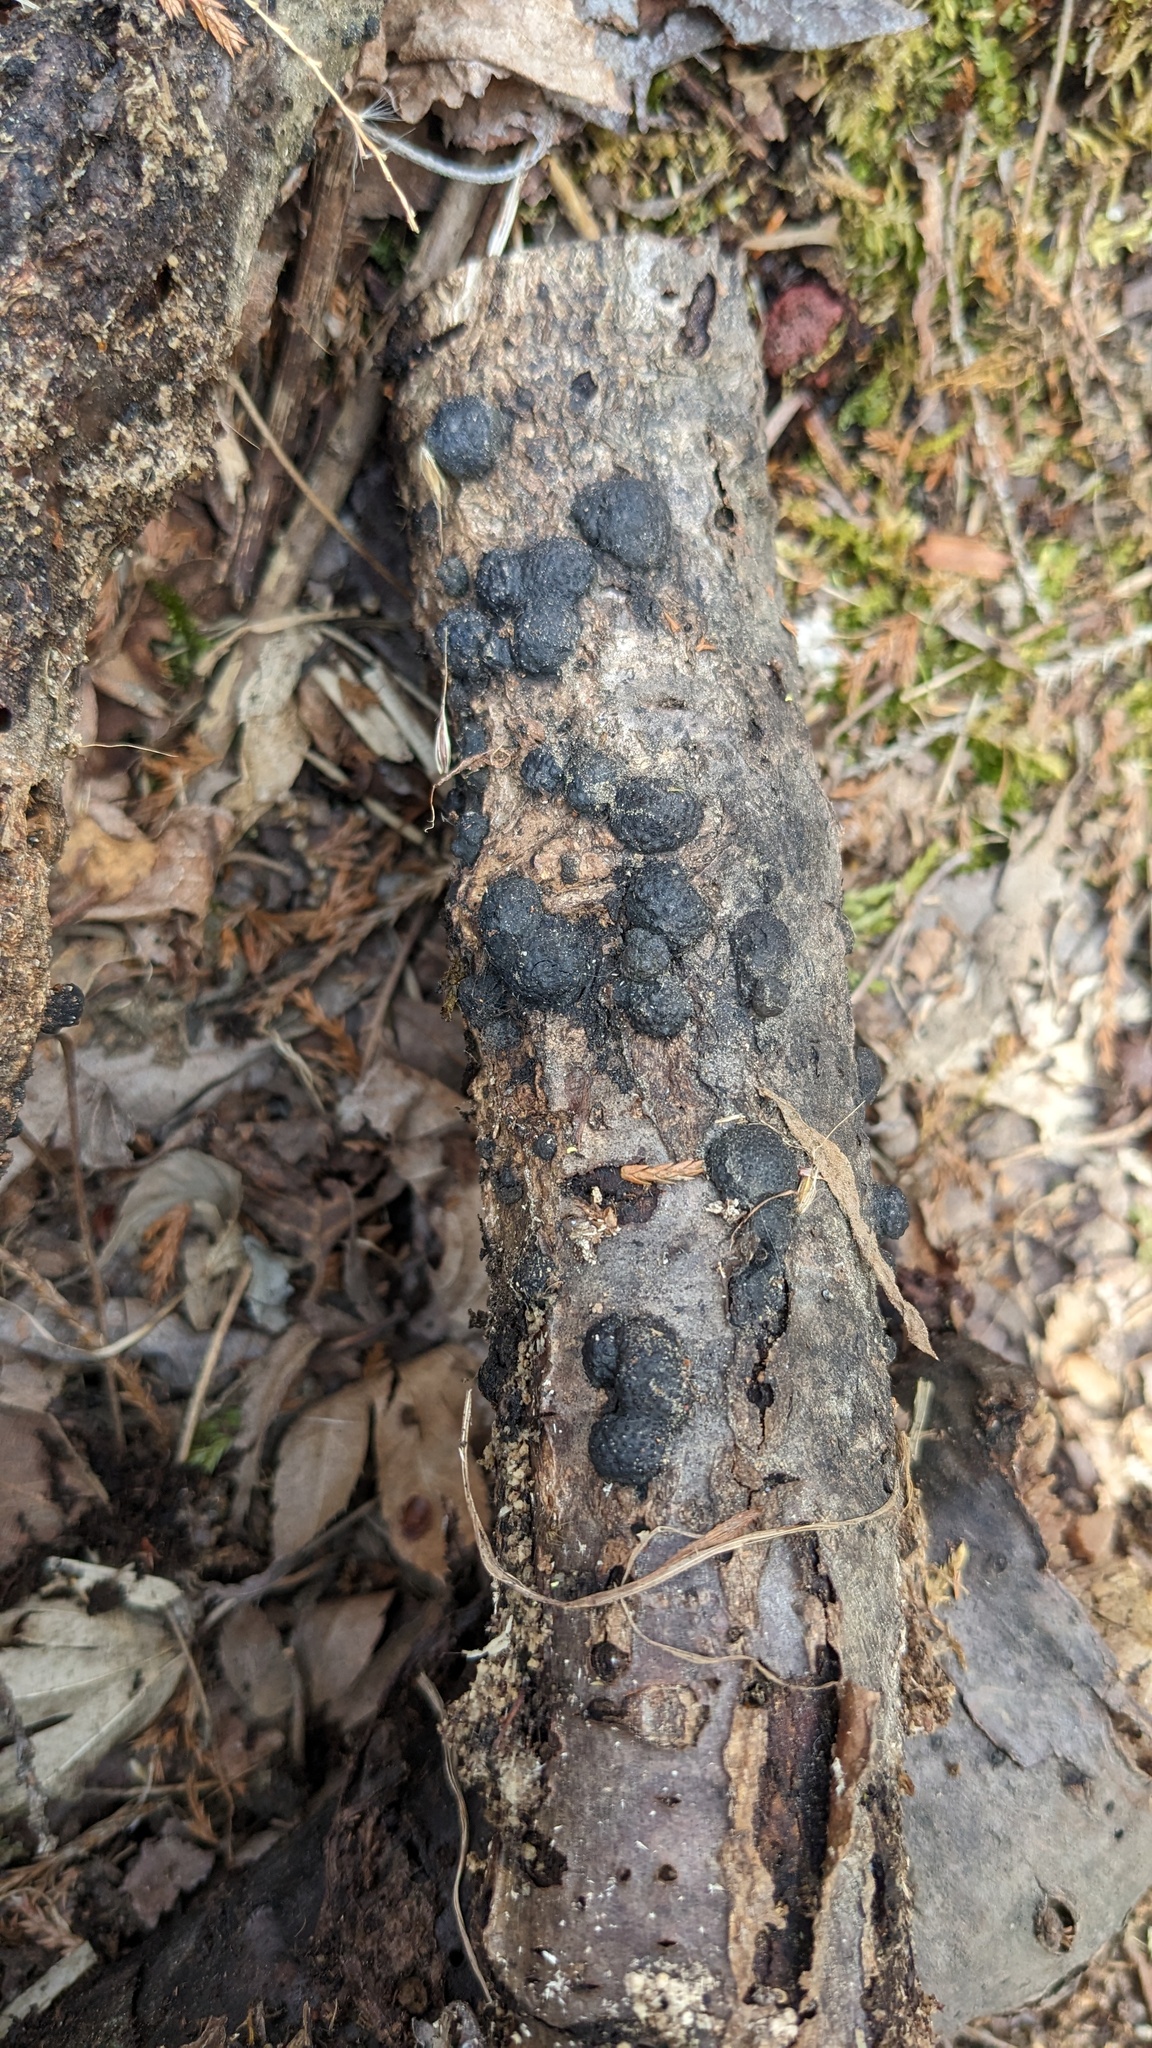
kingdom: Fungi
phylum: Ascomycota
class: Sordariomycetes
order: Xylariales
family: Hypoxylaceae
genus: Annulohypoxylon
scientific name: Annulohypoxylon truncatum
